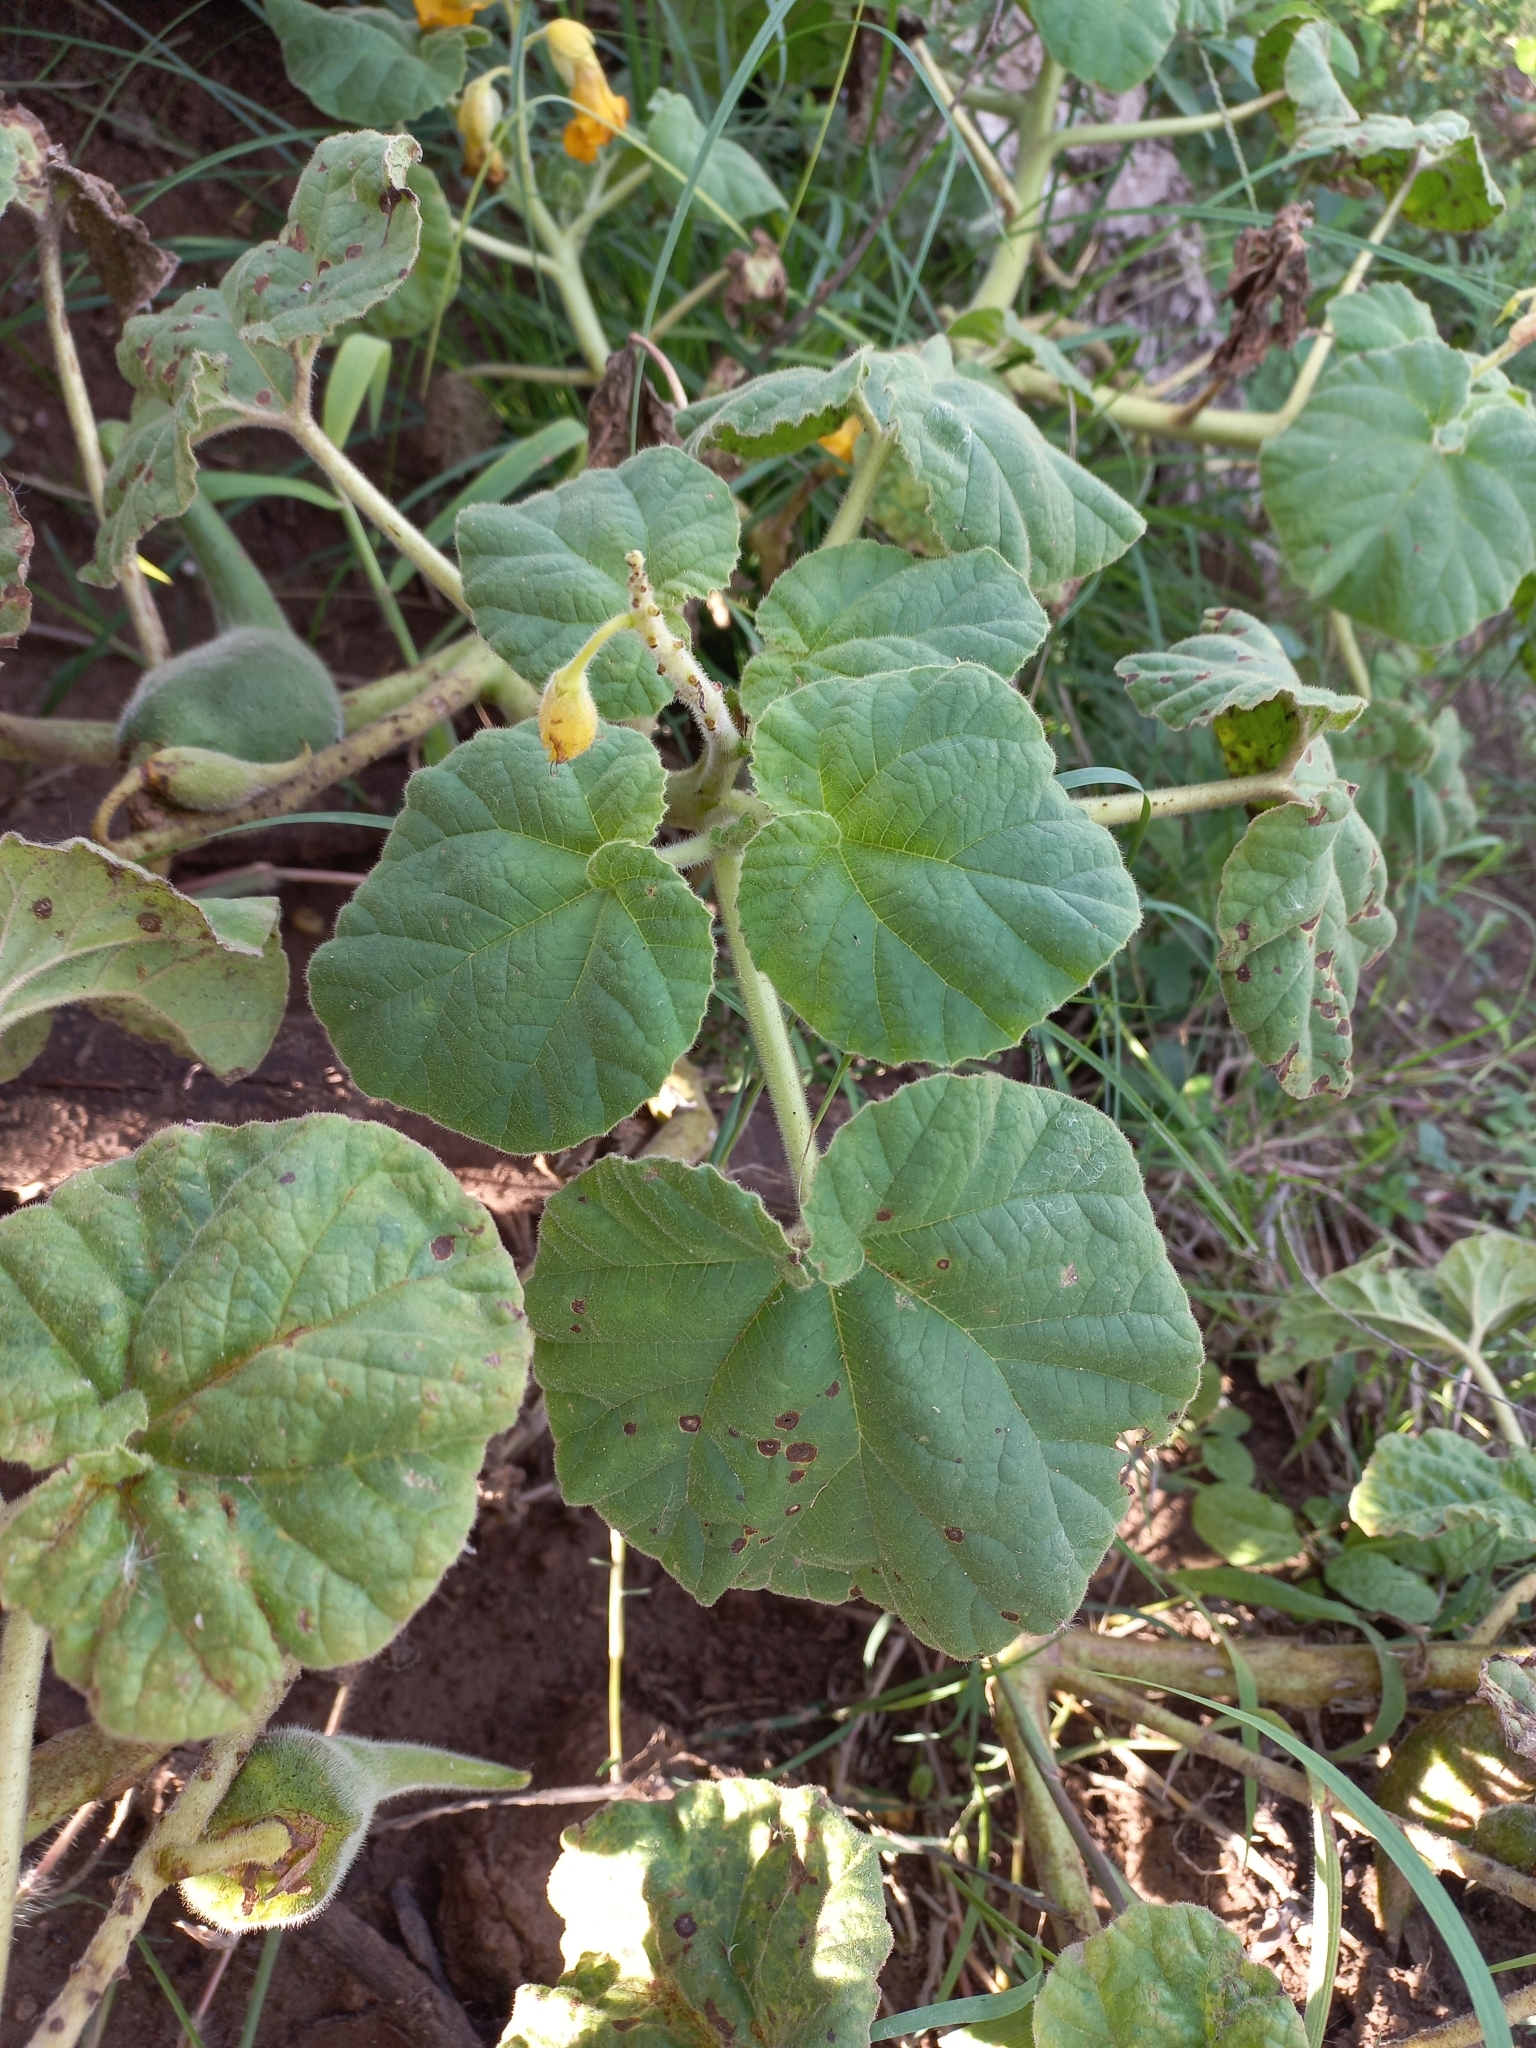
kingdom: Plantae
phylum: Tracheophyta
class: Magnoliopsida
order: Lamiales
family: Martyniaceae
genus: Ibicella
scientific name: Ibicella lutea
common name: Yellow unicorn-plant
